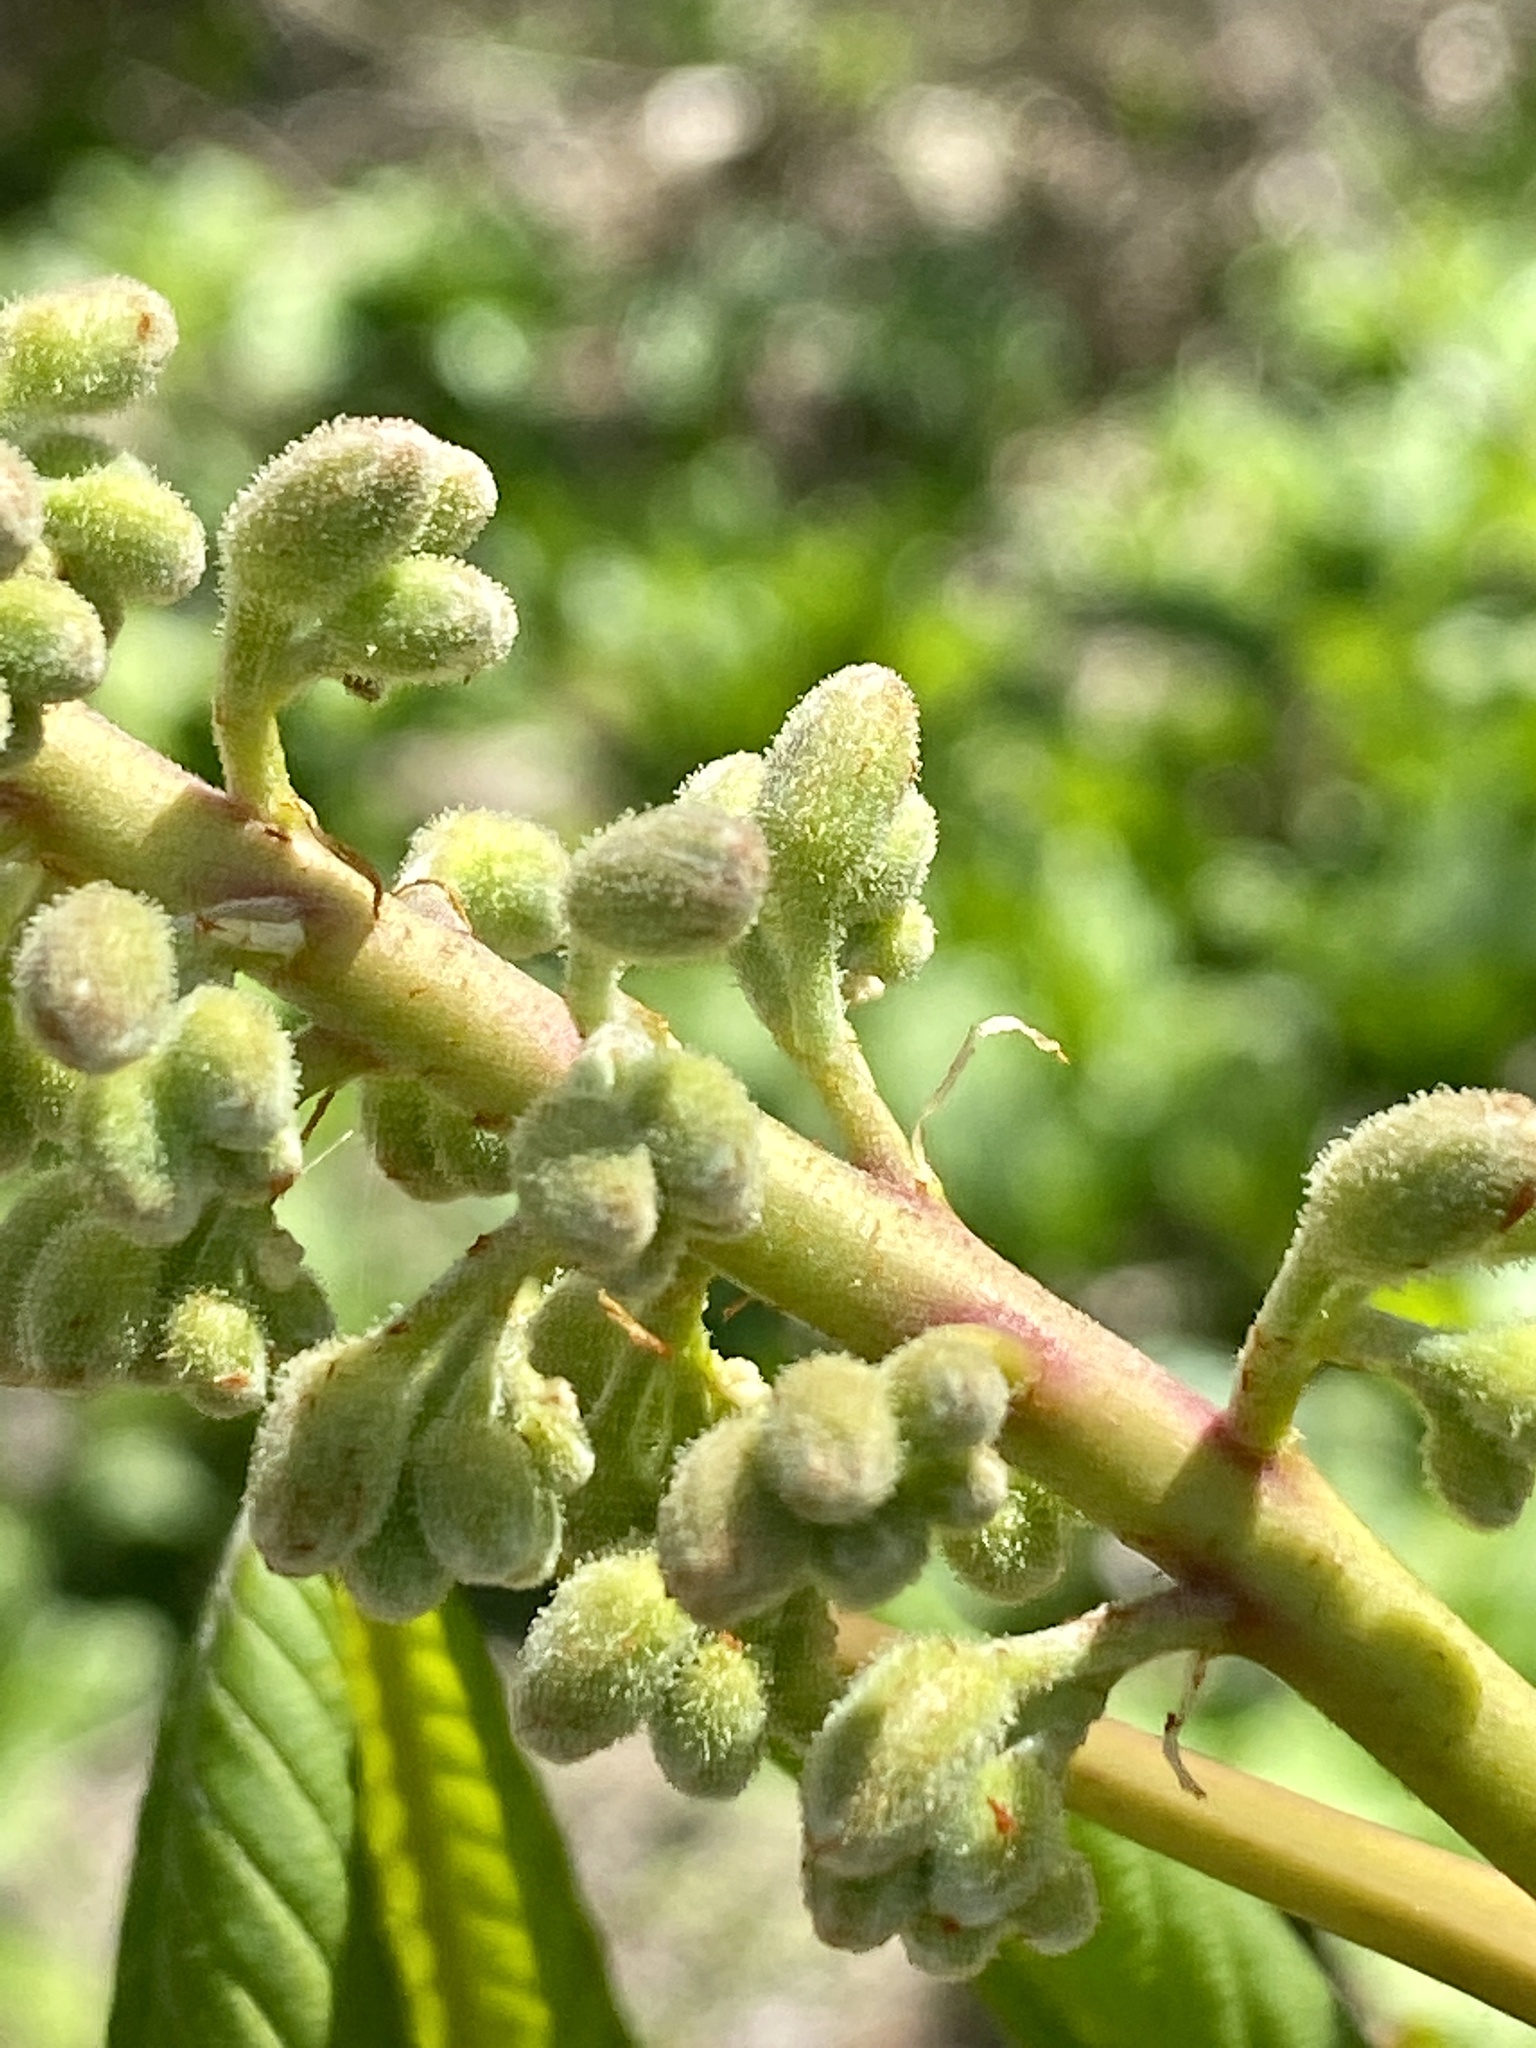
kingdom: Plantae
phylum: Tracheophyta
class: Magnoliopsida
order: Sapindales
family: Sapindaceae
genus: Aesculus
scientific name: Aesculus flava
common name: Yellow buckeye
